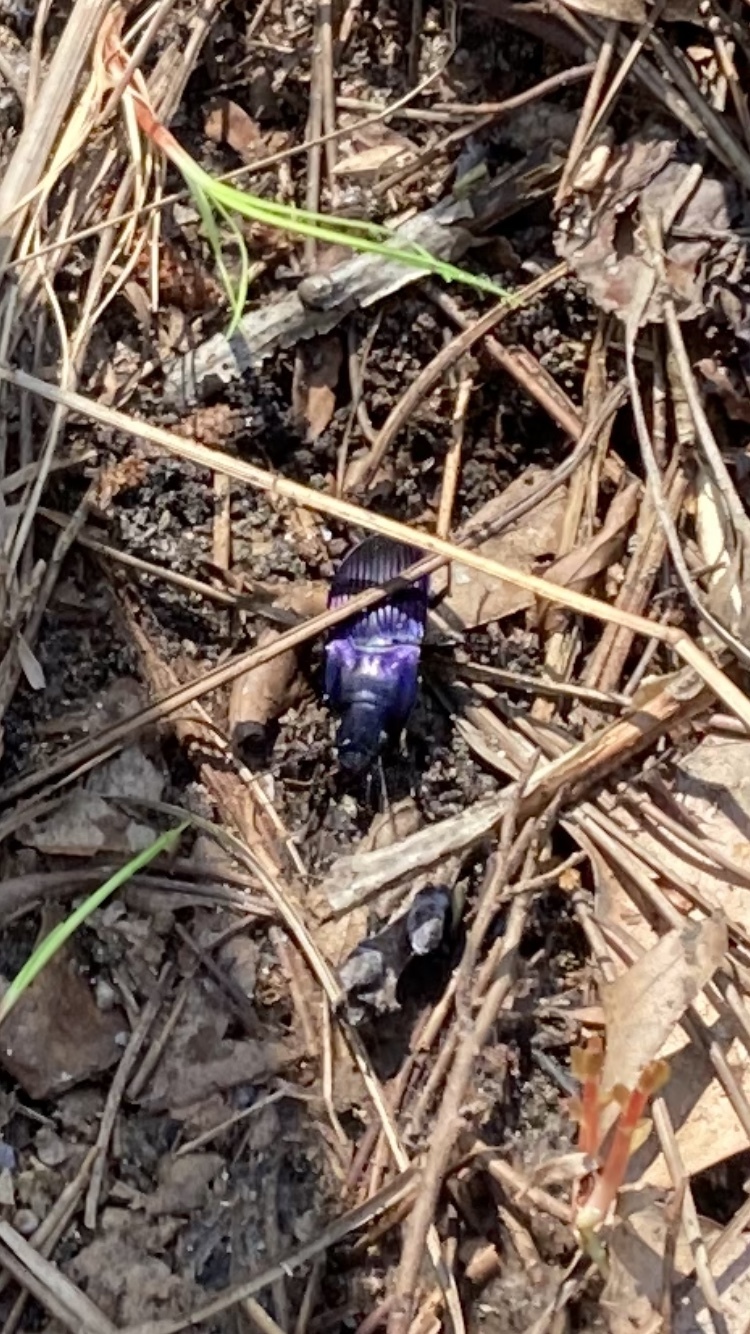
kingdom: Animalia
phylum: Arthropoda
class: Insecta
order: Coleoptera
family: Carabidae
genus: Dicaelus
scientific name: Dicaelus purpuratus
